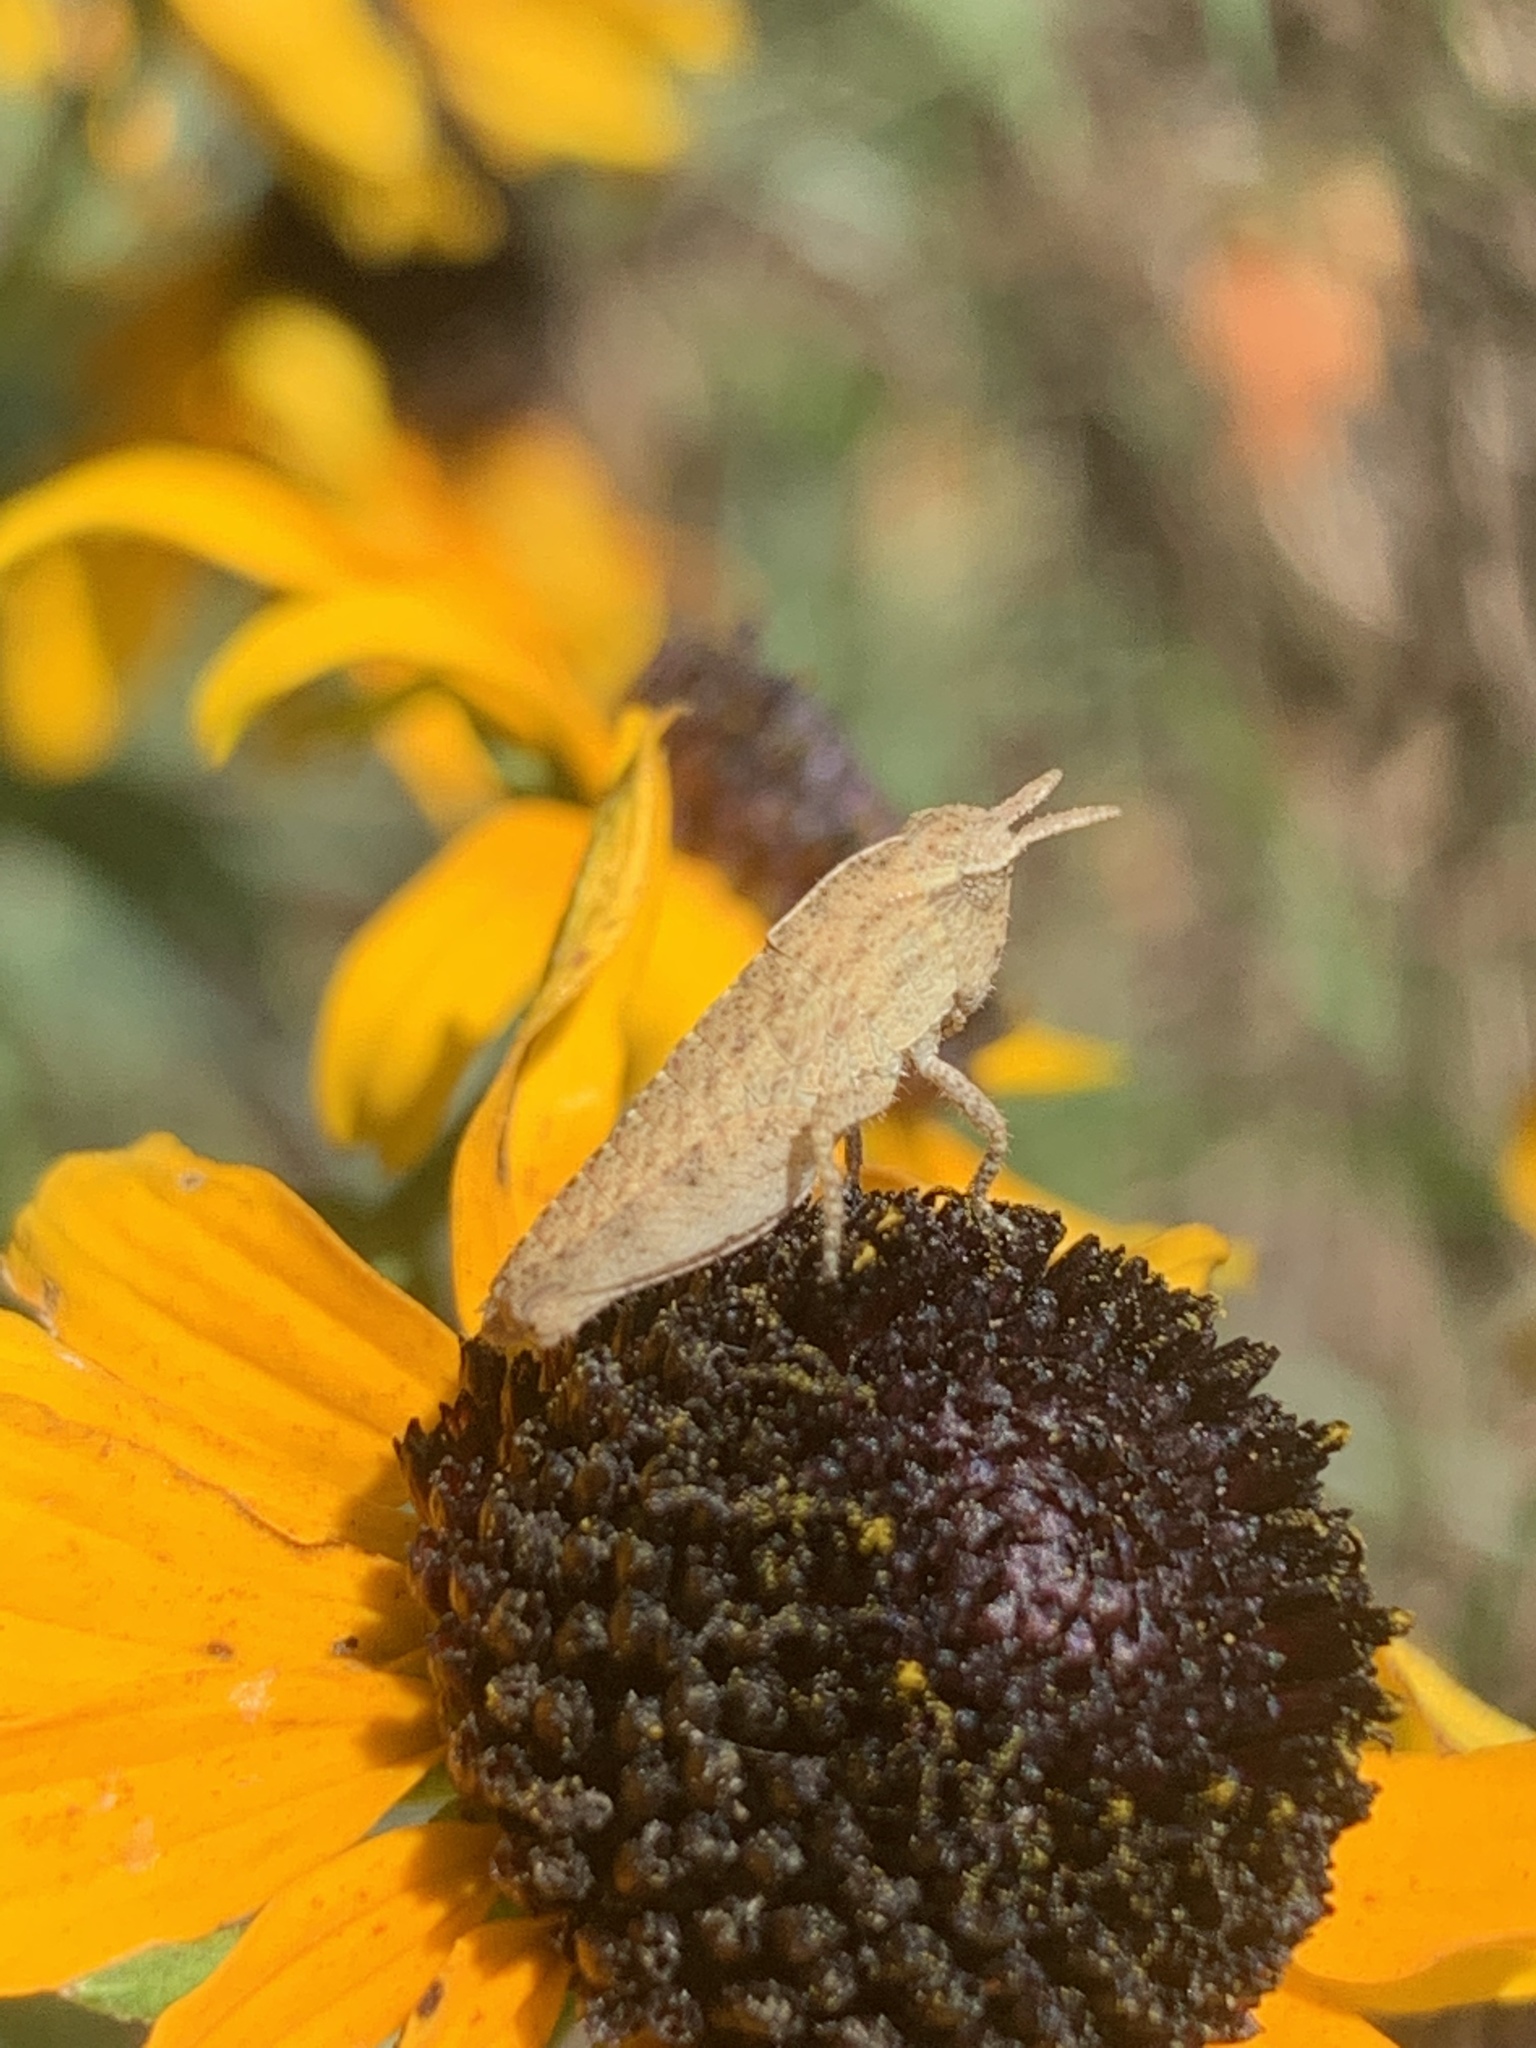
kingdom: Animalia
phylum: Arthropoda
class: Insecta
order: Orthoptera
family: Acrididae
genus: Chortophaga
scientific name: Chortophaga viridifasciata
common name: Green-striped grasshopper
